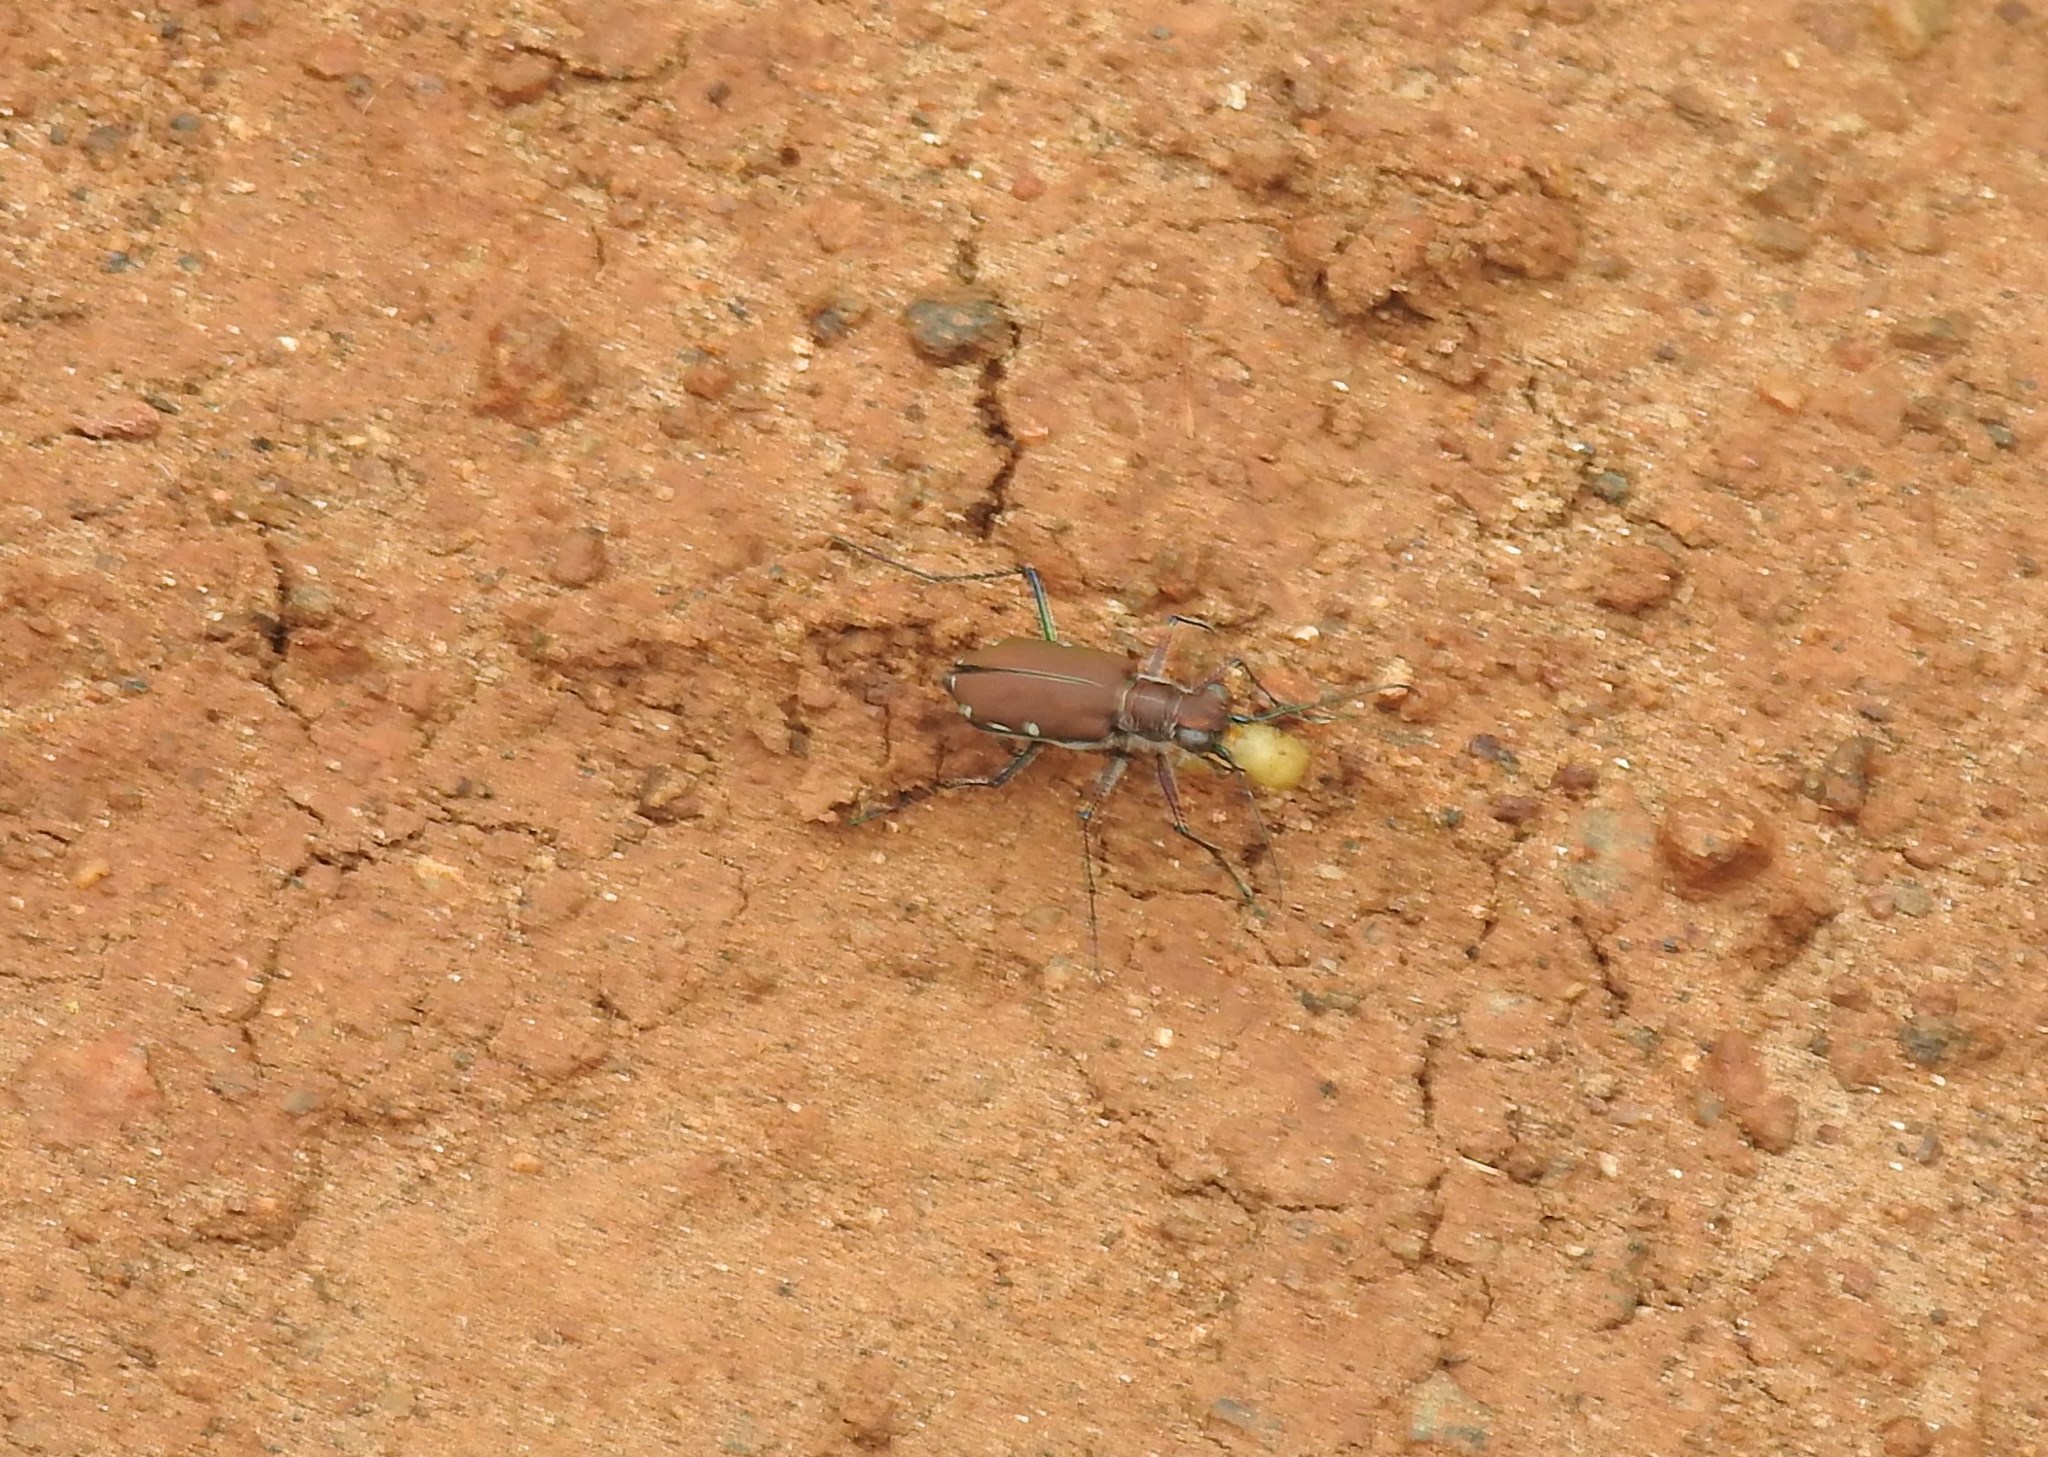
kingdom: Animalia
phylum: Arthropoda
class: Insecta
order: Coleoptera
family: Carabidae
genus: Cicindela
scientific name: Cicindela funerea
